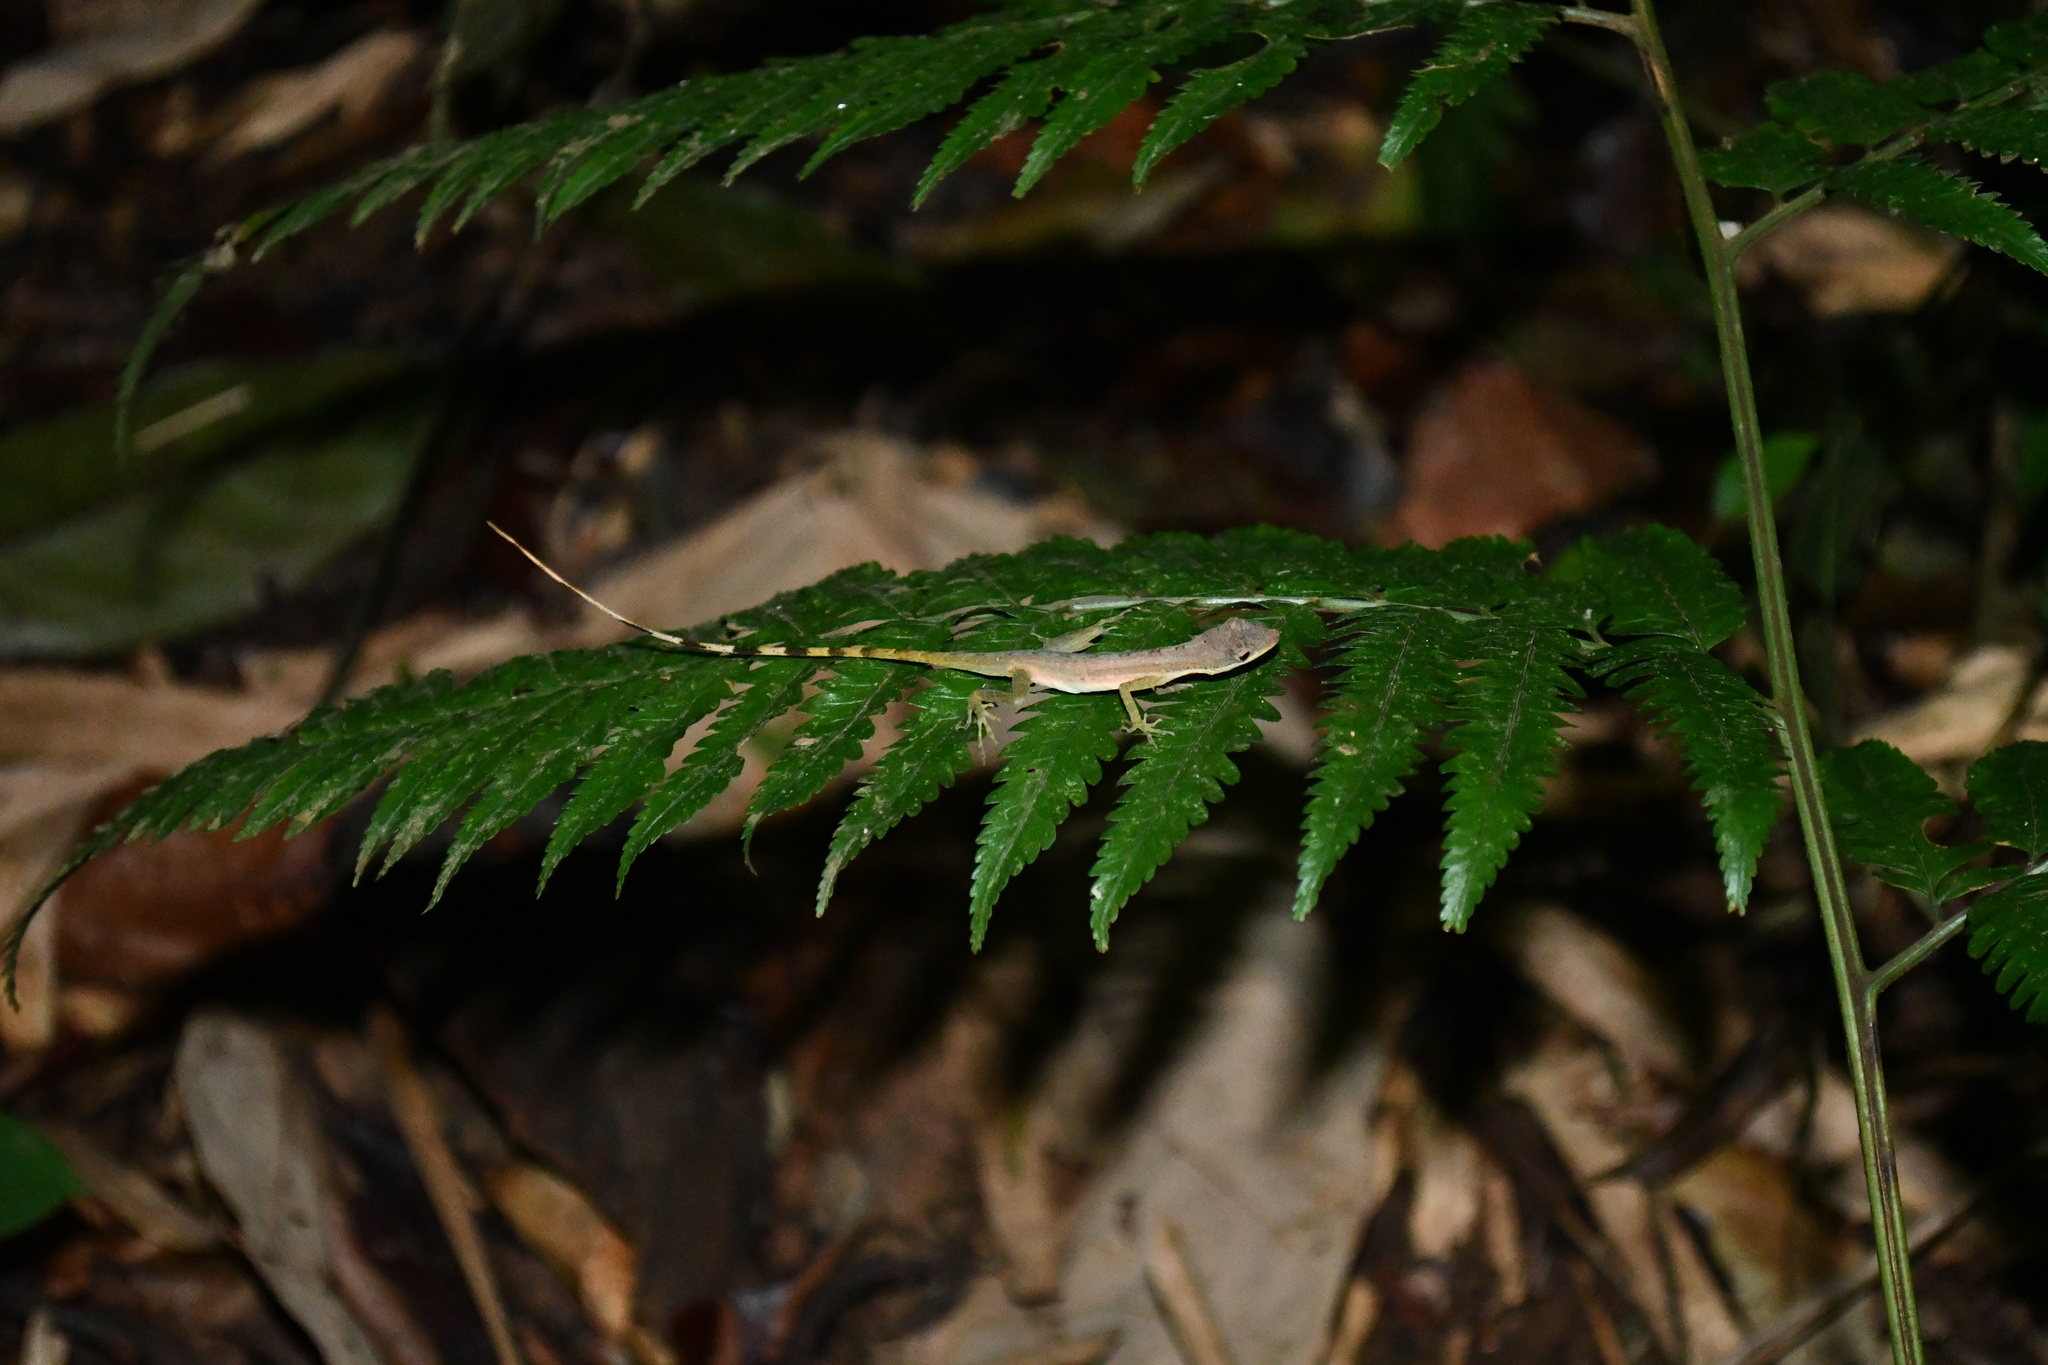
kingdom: Animalia
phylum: Chordata
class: Squamata
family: Dactyloidae
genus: Anolis
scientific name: Anolis limifrons
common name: Border anole
